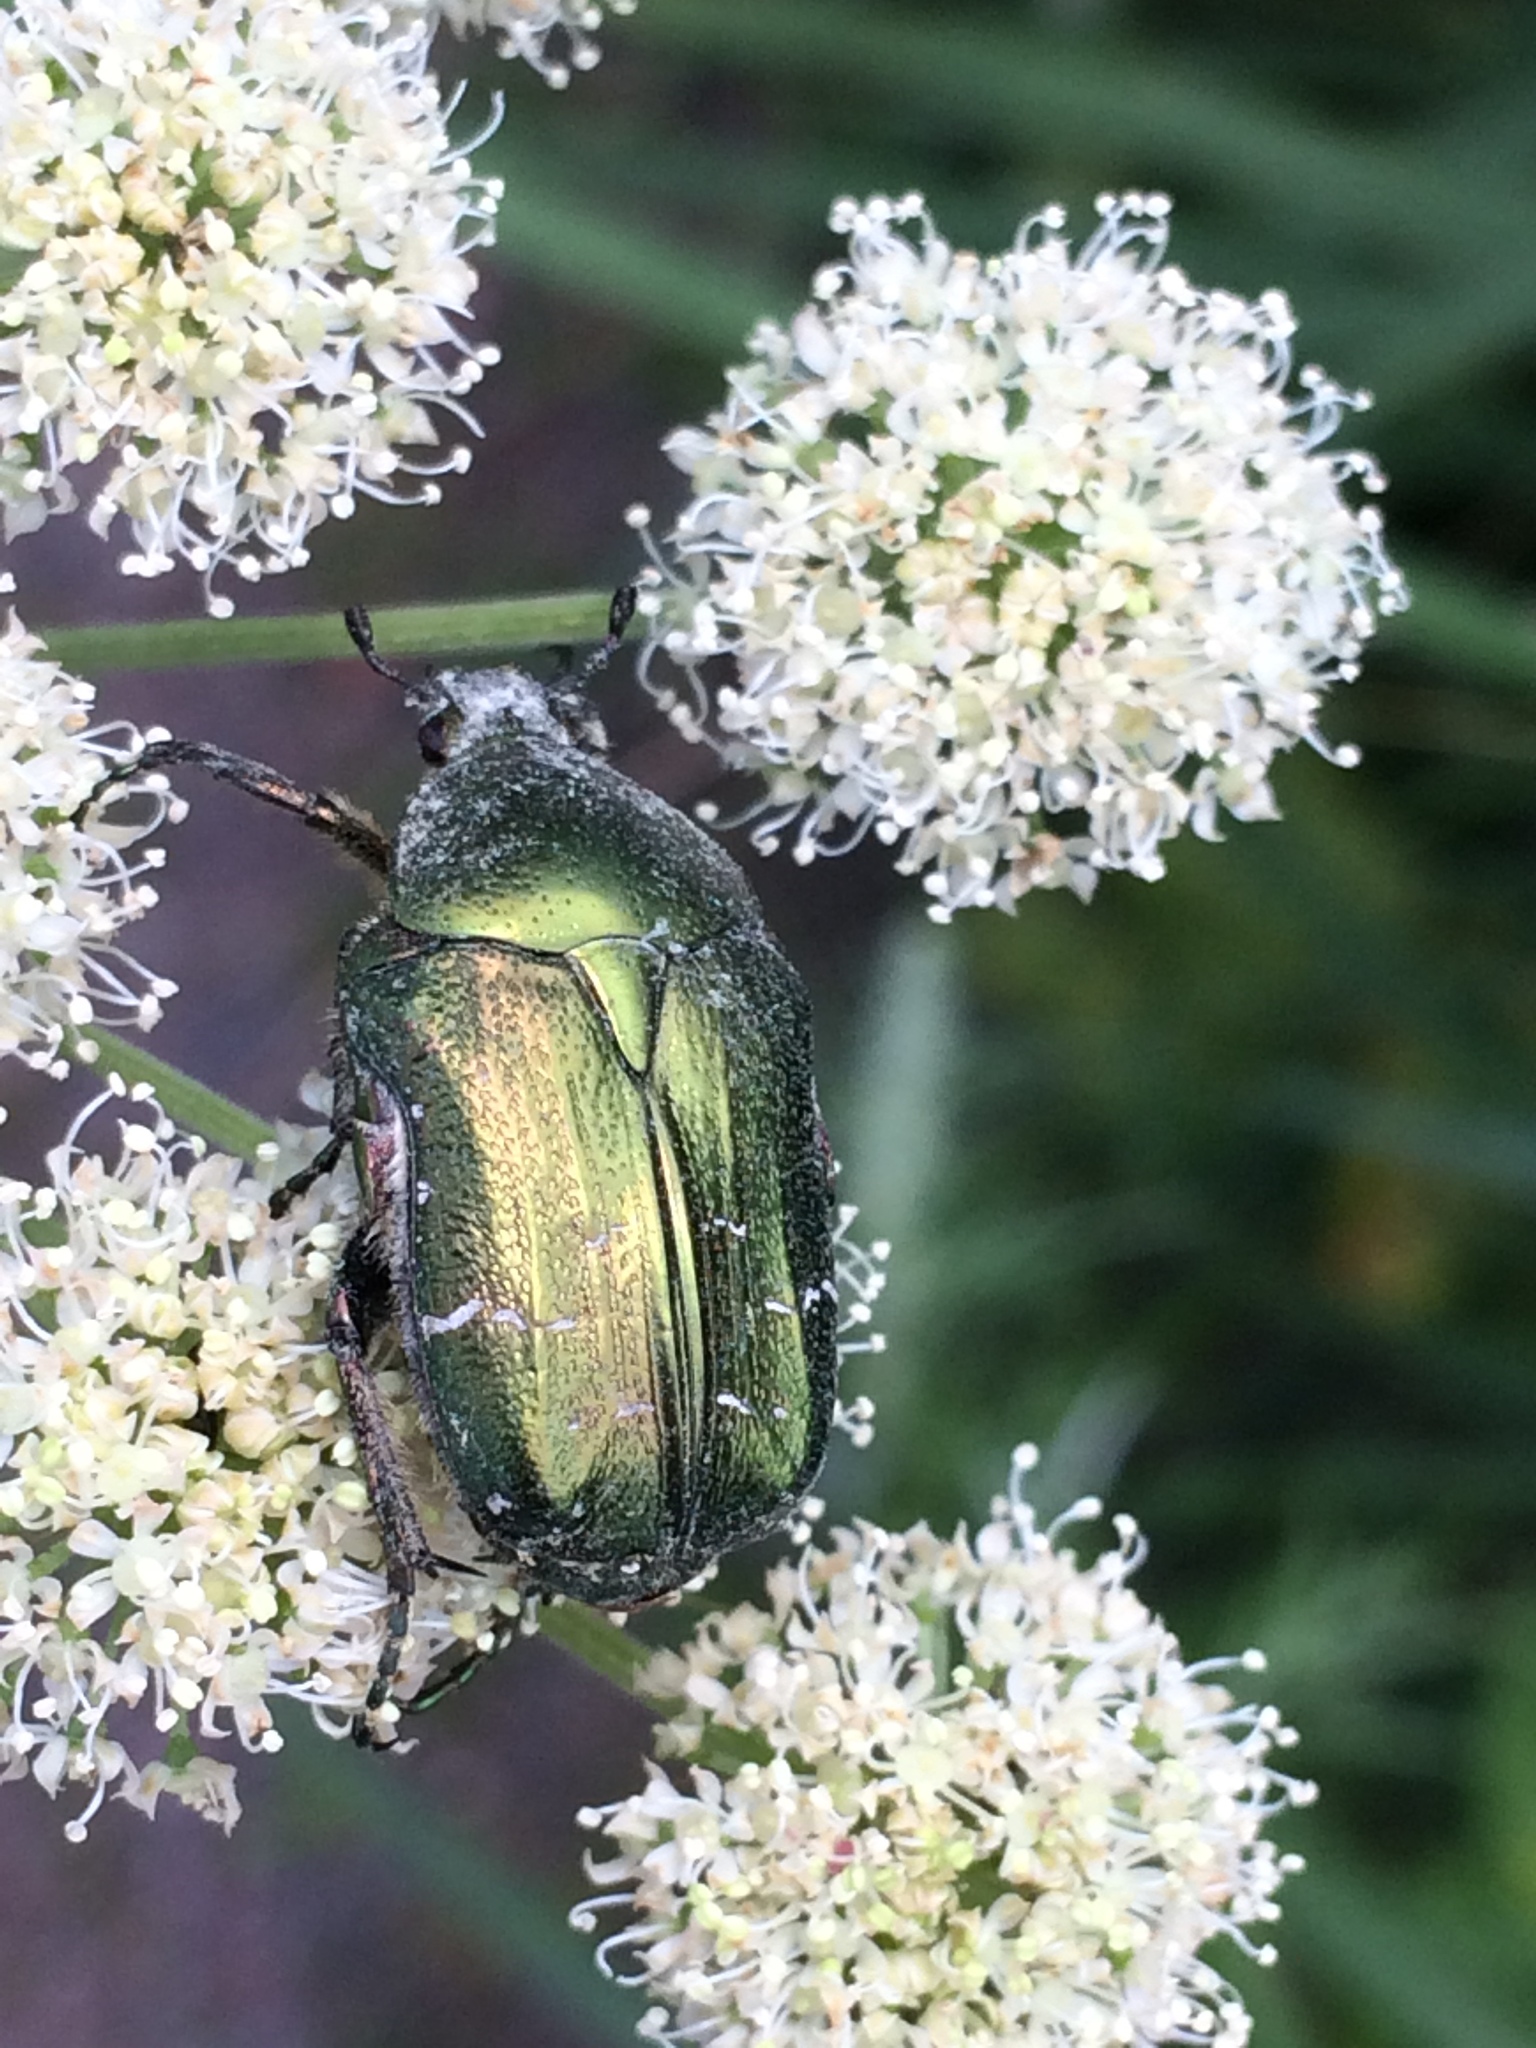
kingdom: Animalia
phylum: Arthropoda
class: Insecta
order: Coleoptera
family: Scarabaeidae
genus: Cetonia
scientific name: Cetonia aurata
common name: Rose chafer
